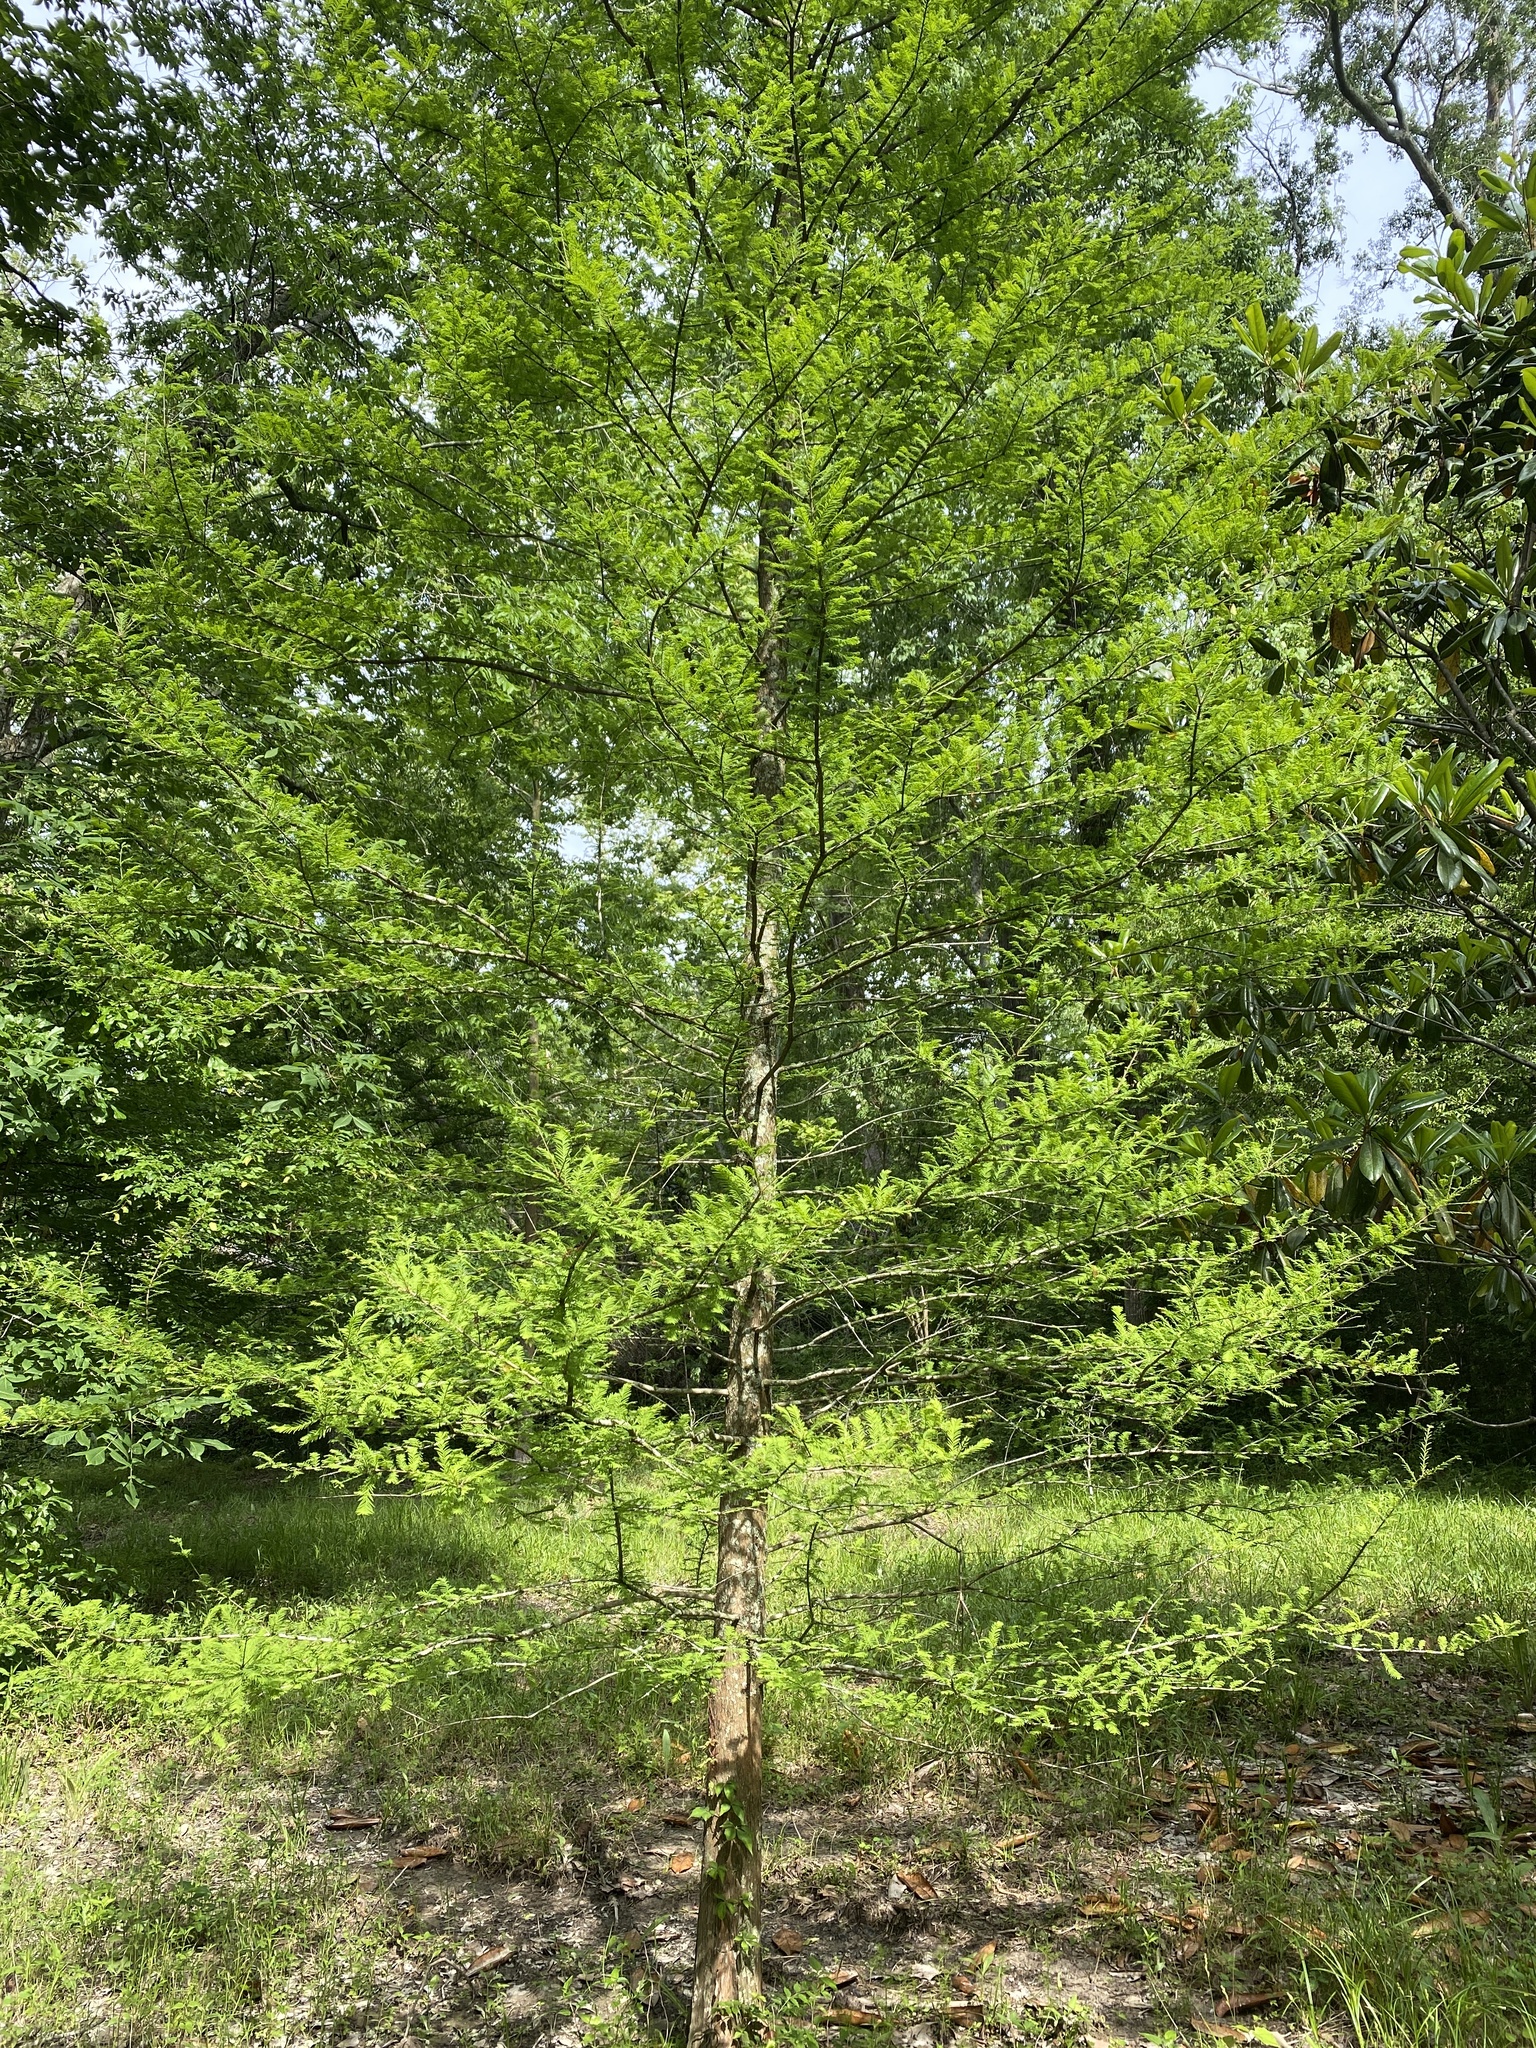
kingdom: Plantae
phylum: Tracheophyta
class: Pinopsida
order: Pinales
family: Cupressaceae
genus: Taxodium
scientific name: Taxodium distichum
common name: Bald cypress
